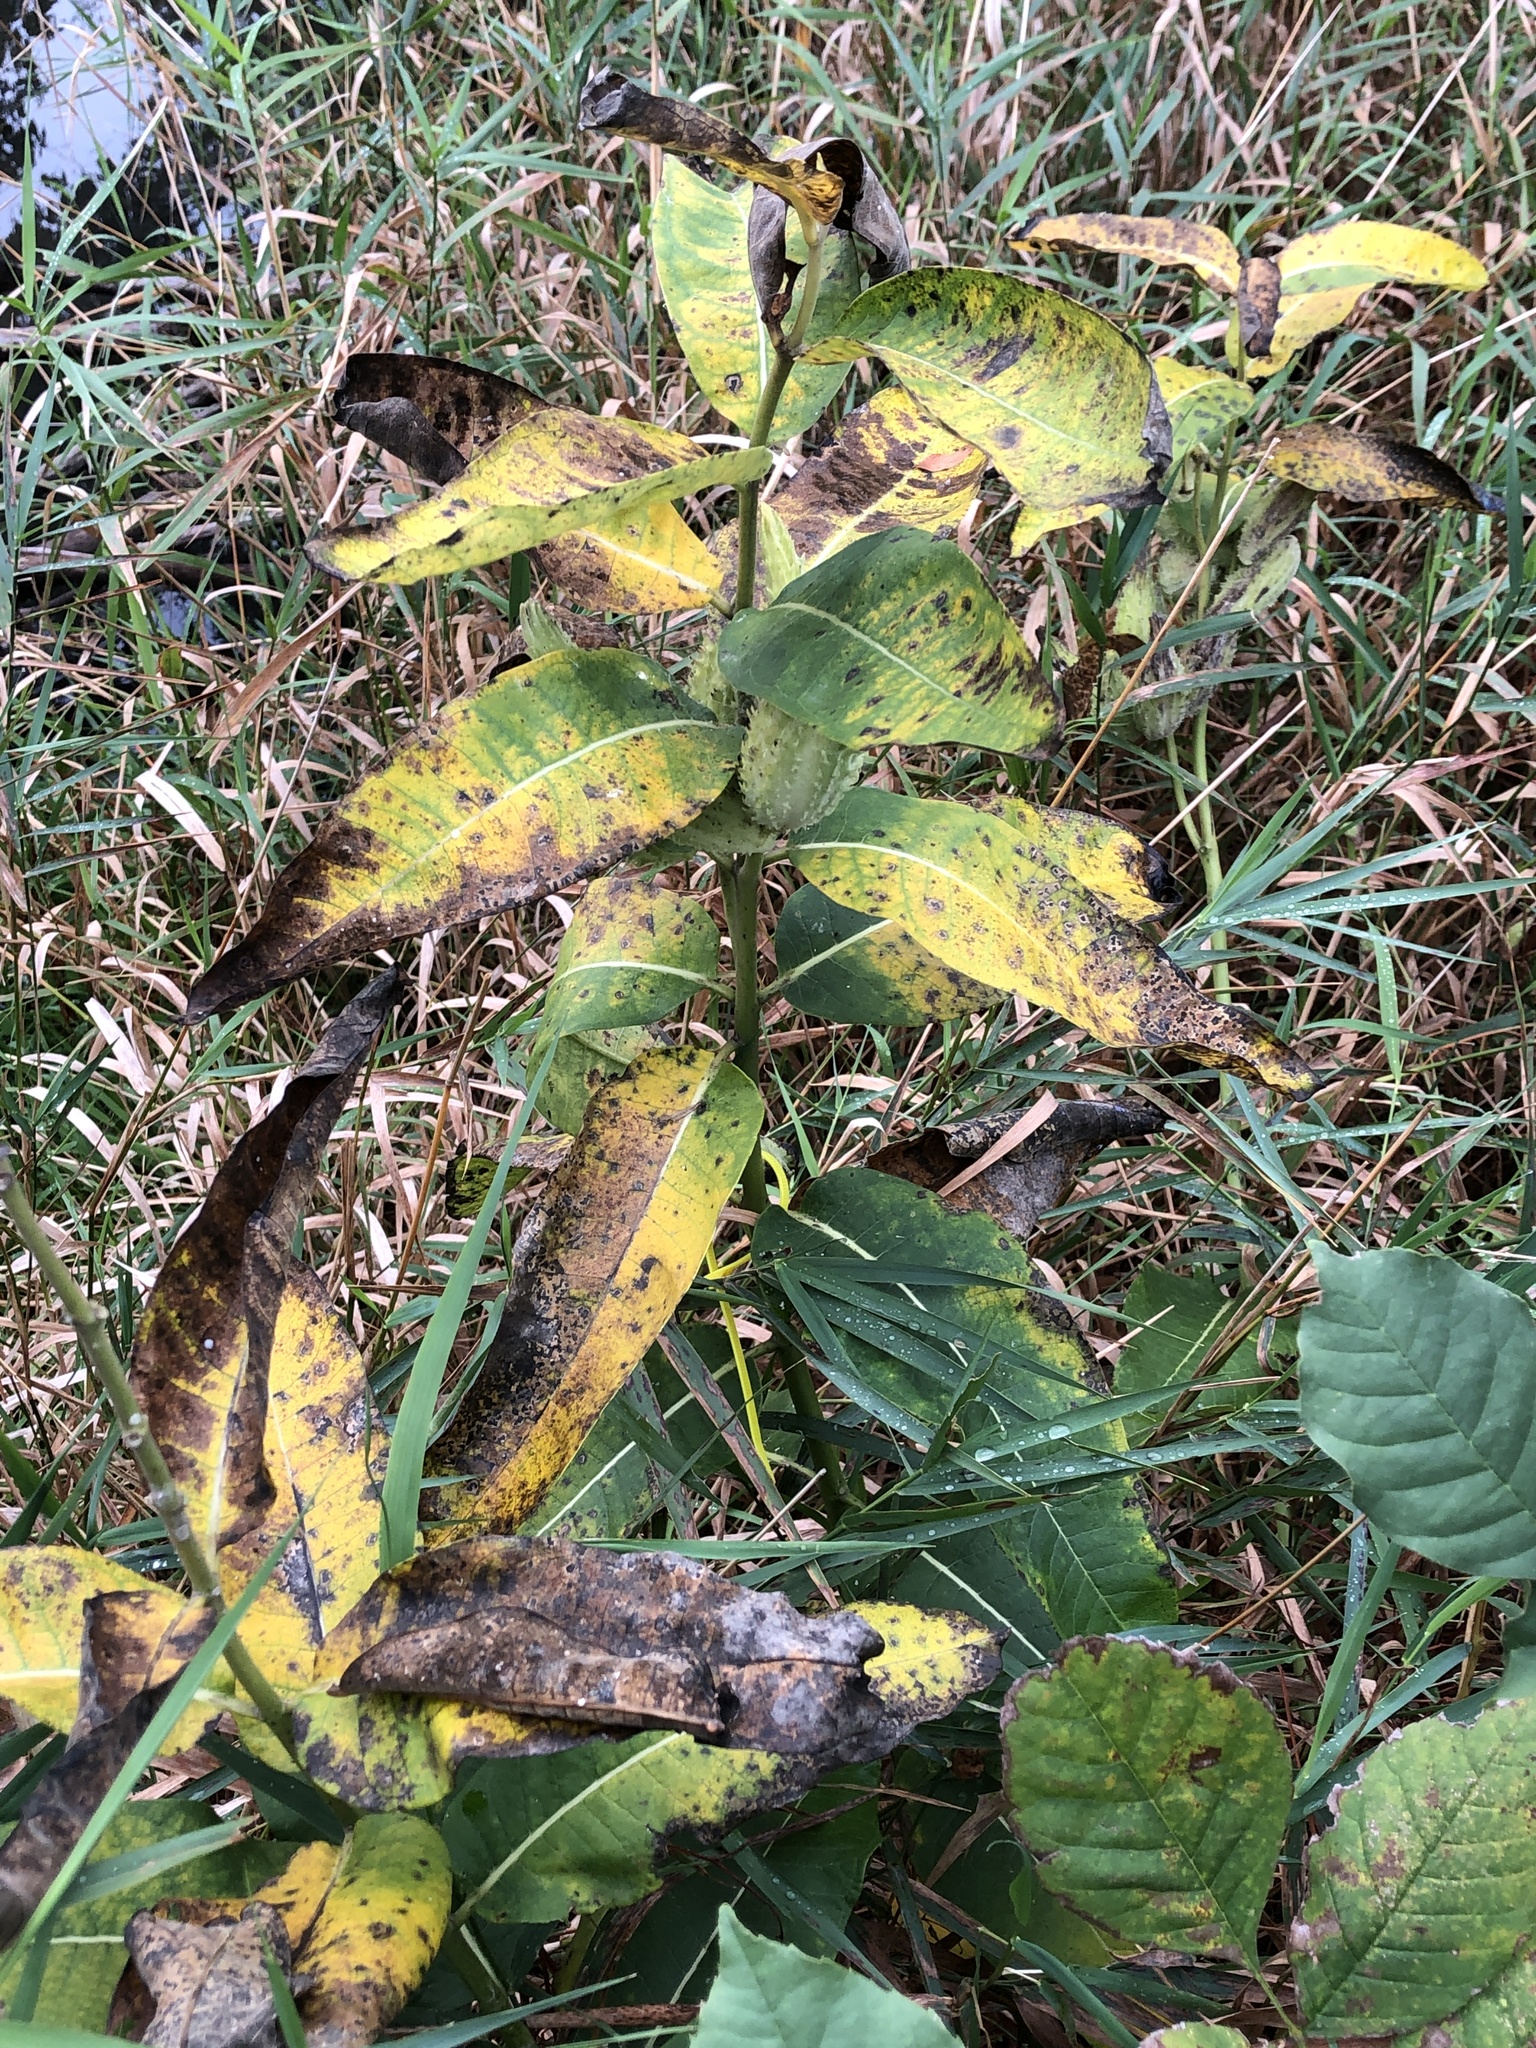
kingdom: Plantae
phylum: Tracheophyta
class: Magnoliopsida
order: Gentianales
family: Apocynaceae
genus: Asclepias
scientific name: Asclepias syriaca
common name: Common milkweed
